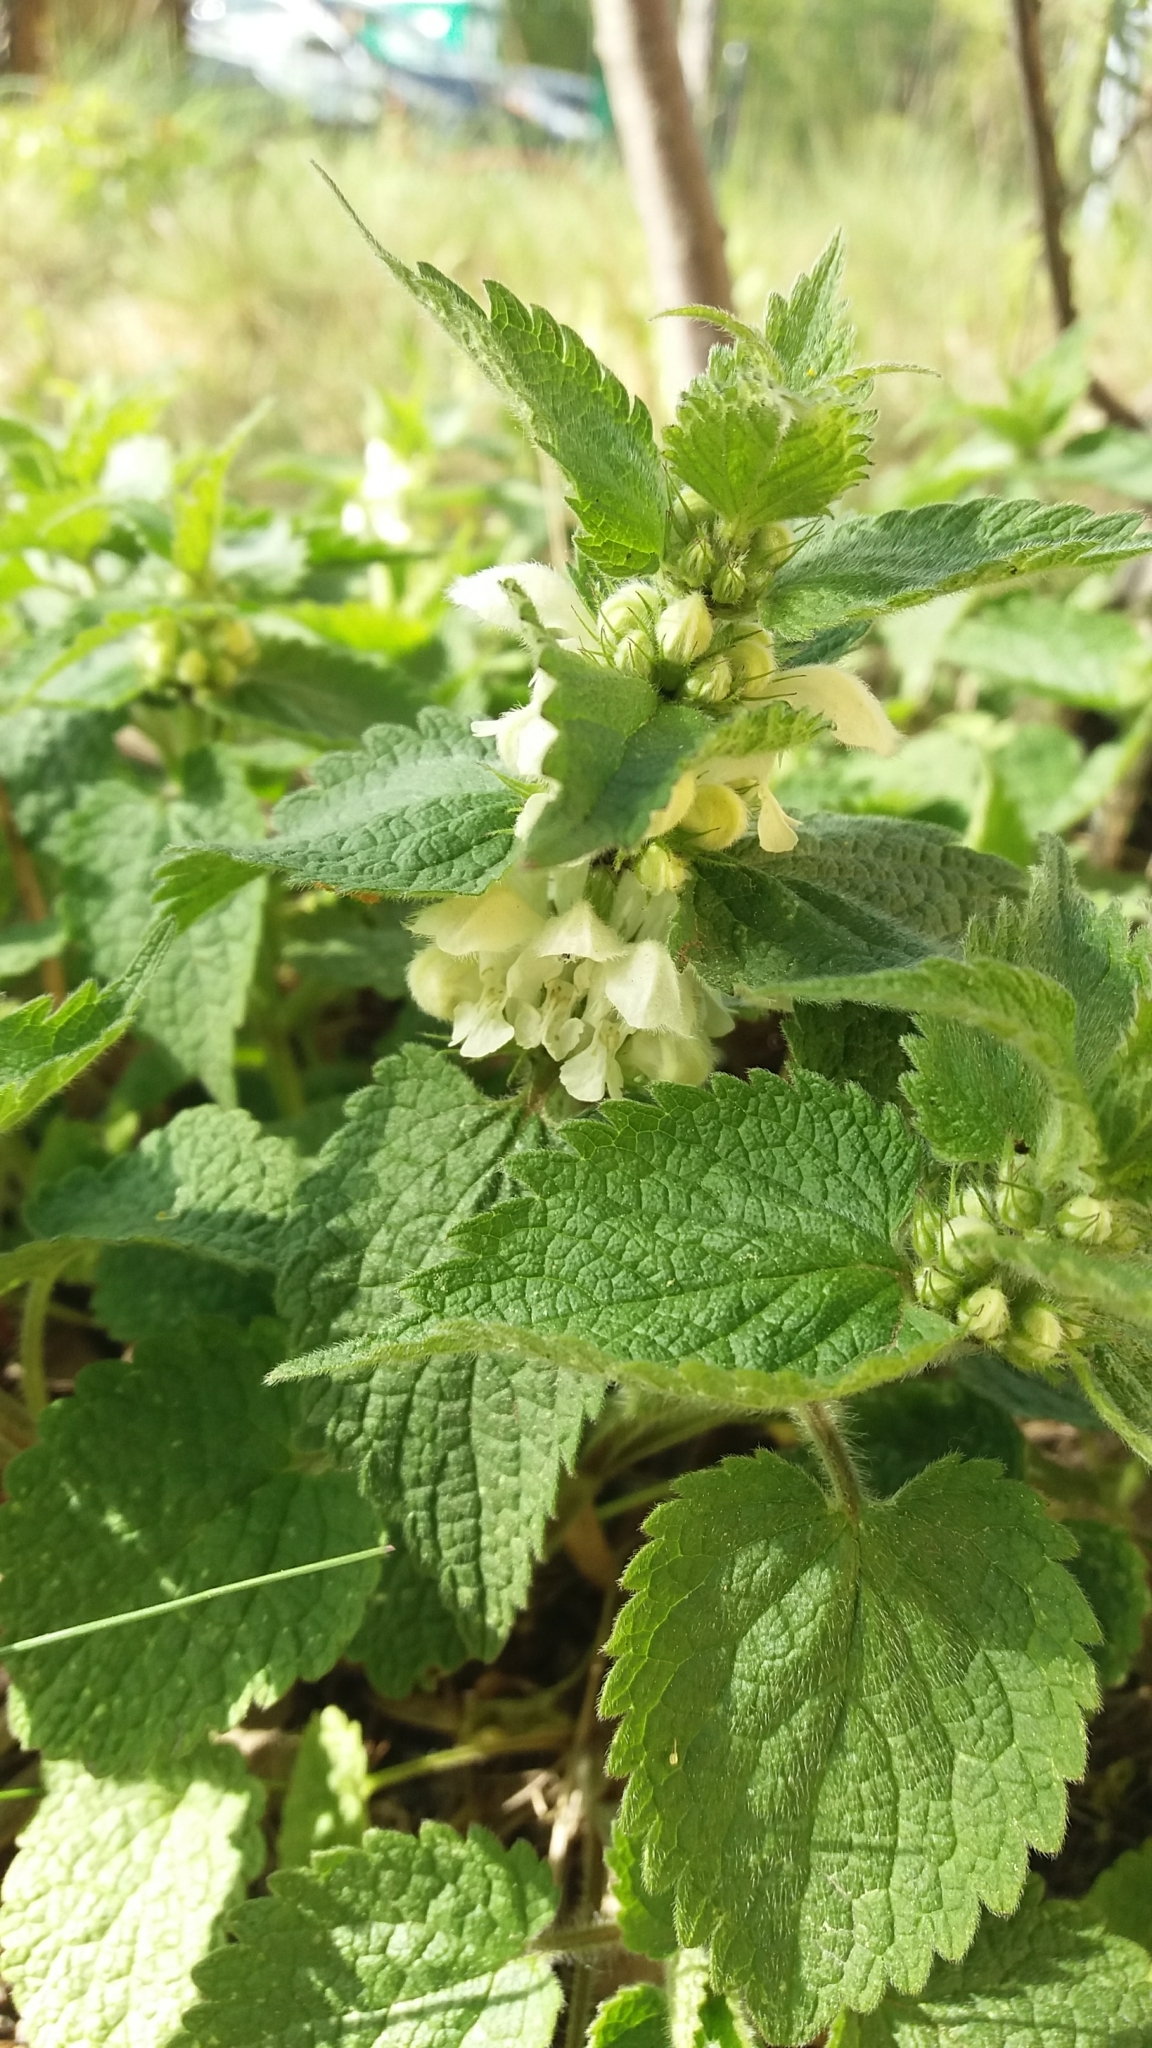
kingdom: Plantae
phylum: Tracheophyta
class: Magnoliopsida
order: Lamiales
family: Lamiaceae
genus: Lamium
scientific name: Lamium album
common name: White dead-nettle
